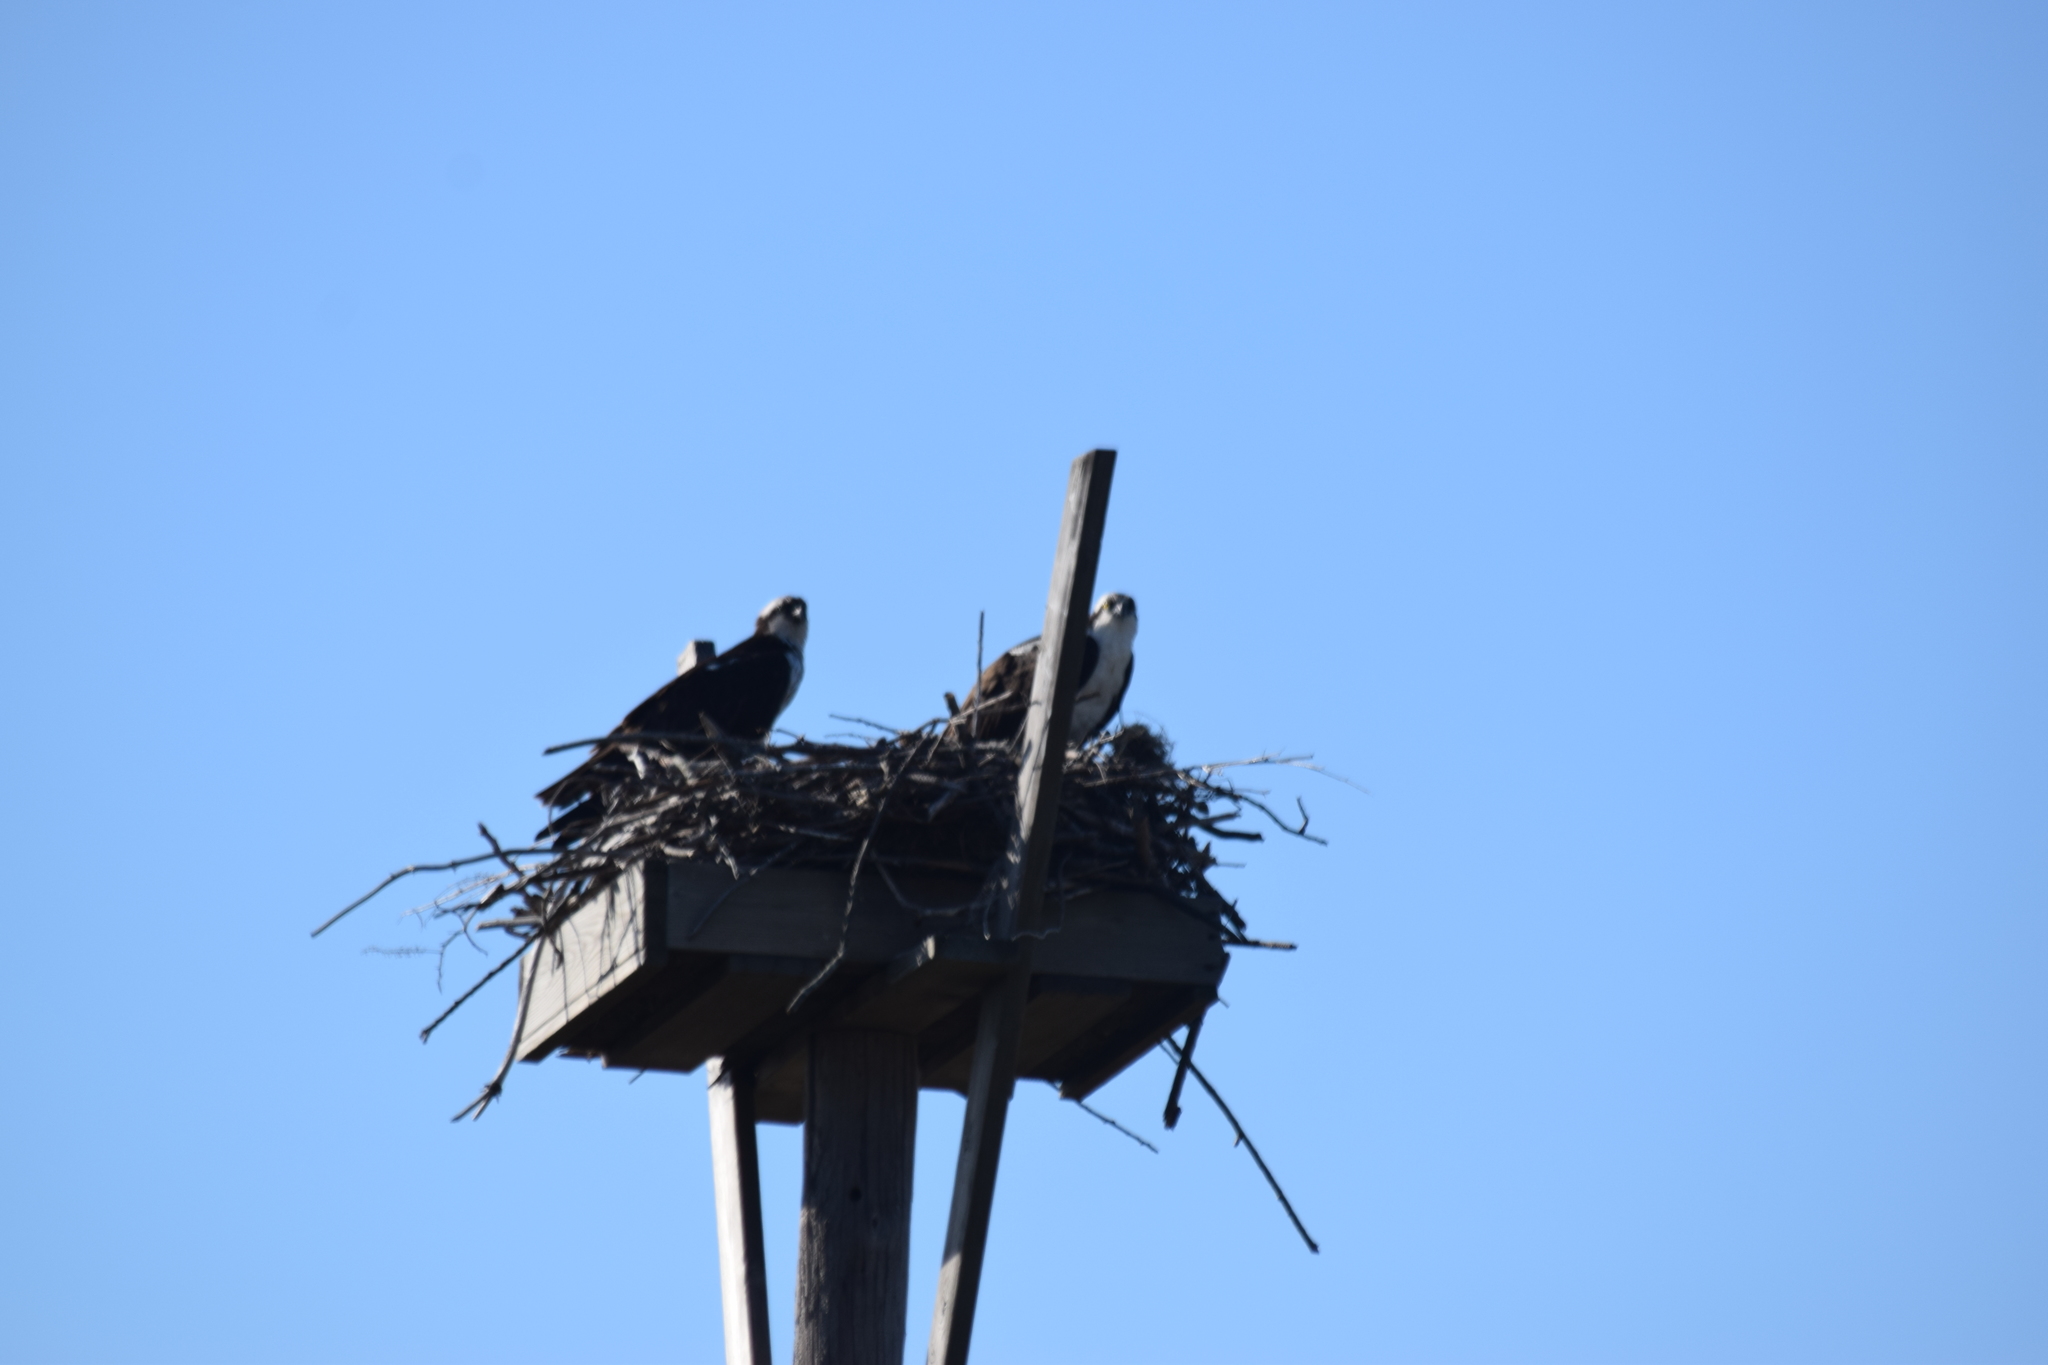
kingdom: Animalia
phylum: Chordata
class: Aves
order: Accipitriformes
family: Pandionidae
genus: Pandion
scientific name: Pandion haliaetus
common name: Osprey
